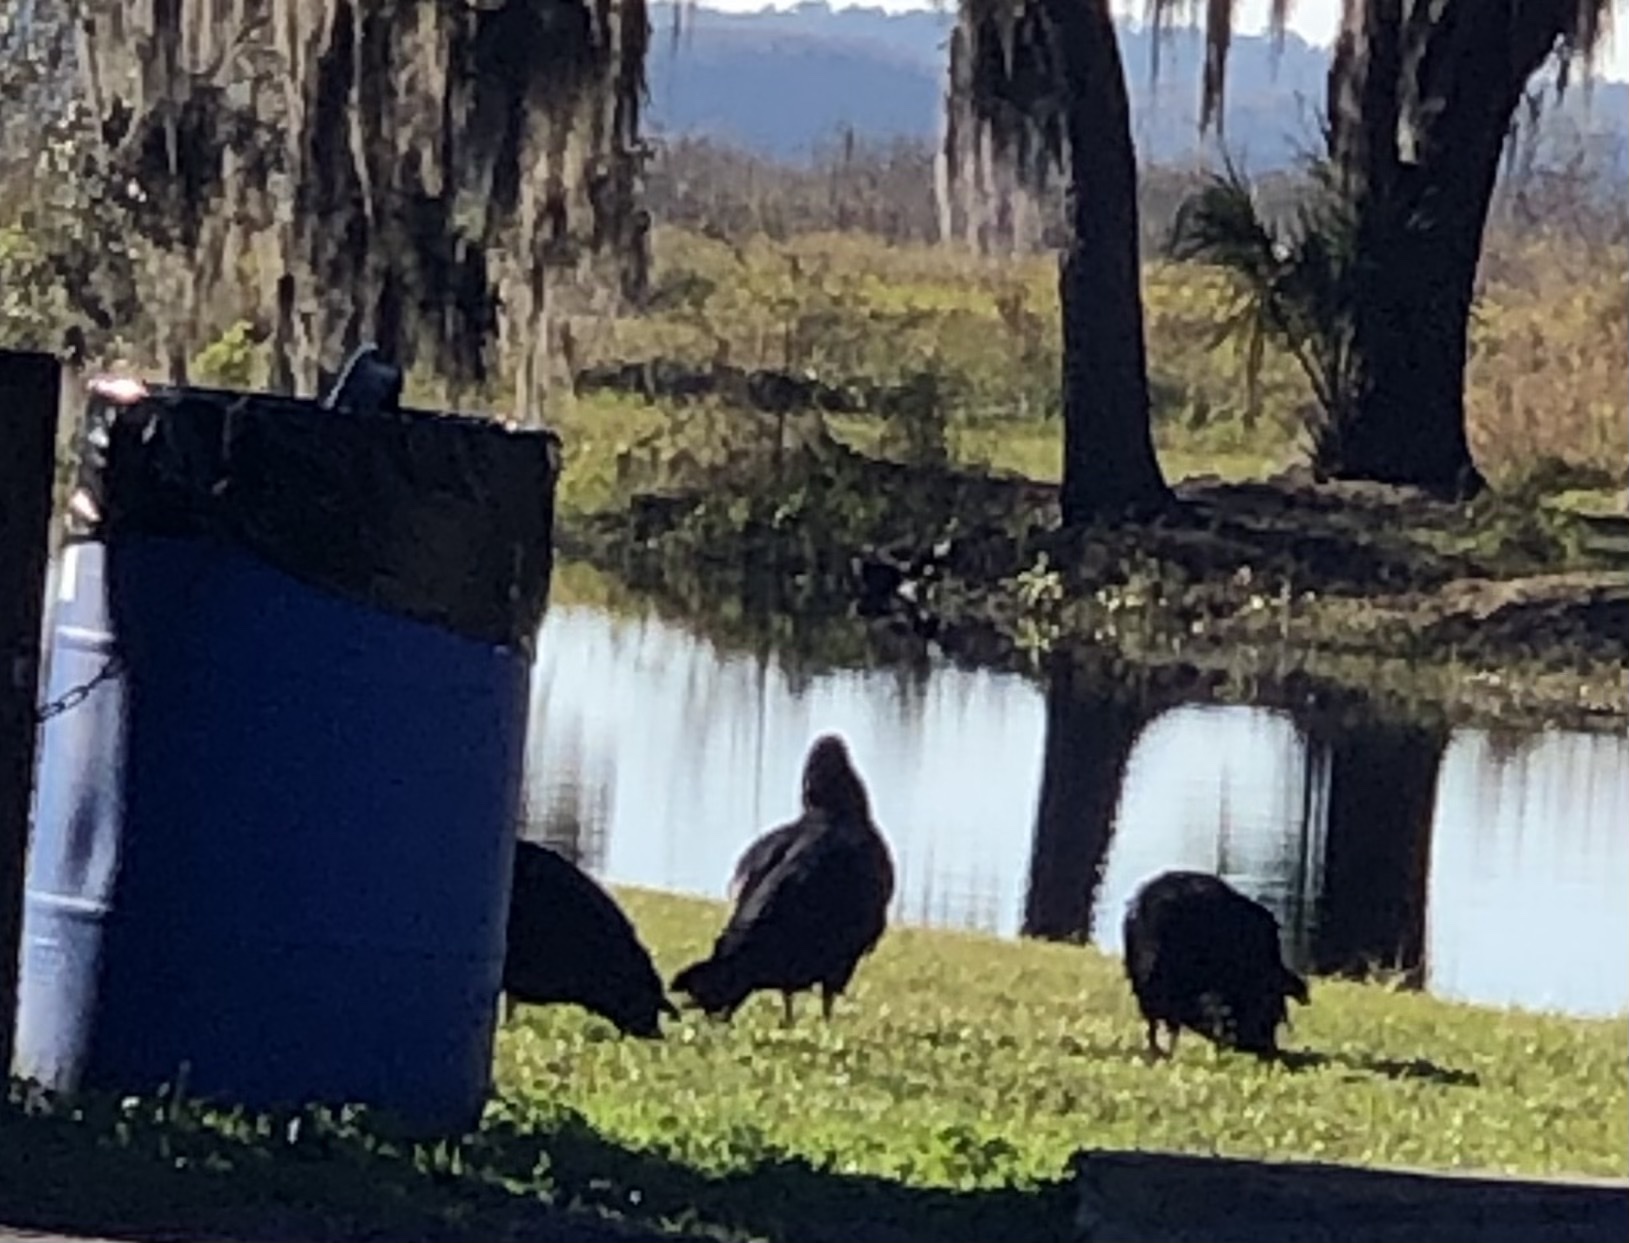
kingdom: Animalia
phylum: Chordata
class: Aves
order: Accipitriformes
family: Cathartidae
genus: Coragyps
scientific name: Coragyps atratus
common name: Black vulture
